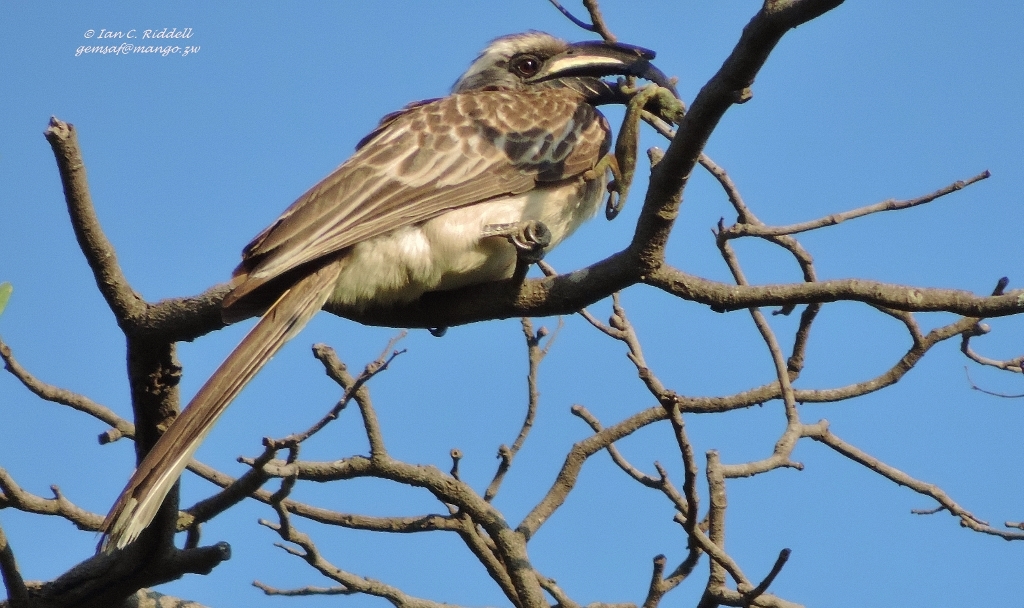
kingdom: Animalia
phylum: Chordata
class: Squamata
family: Chamaeleonidae
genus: Chamaeleo
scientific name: Chamaeleo dilepis
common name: Flapneck chameleon
